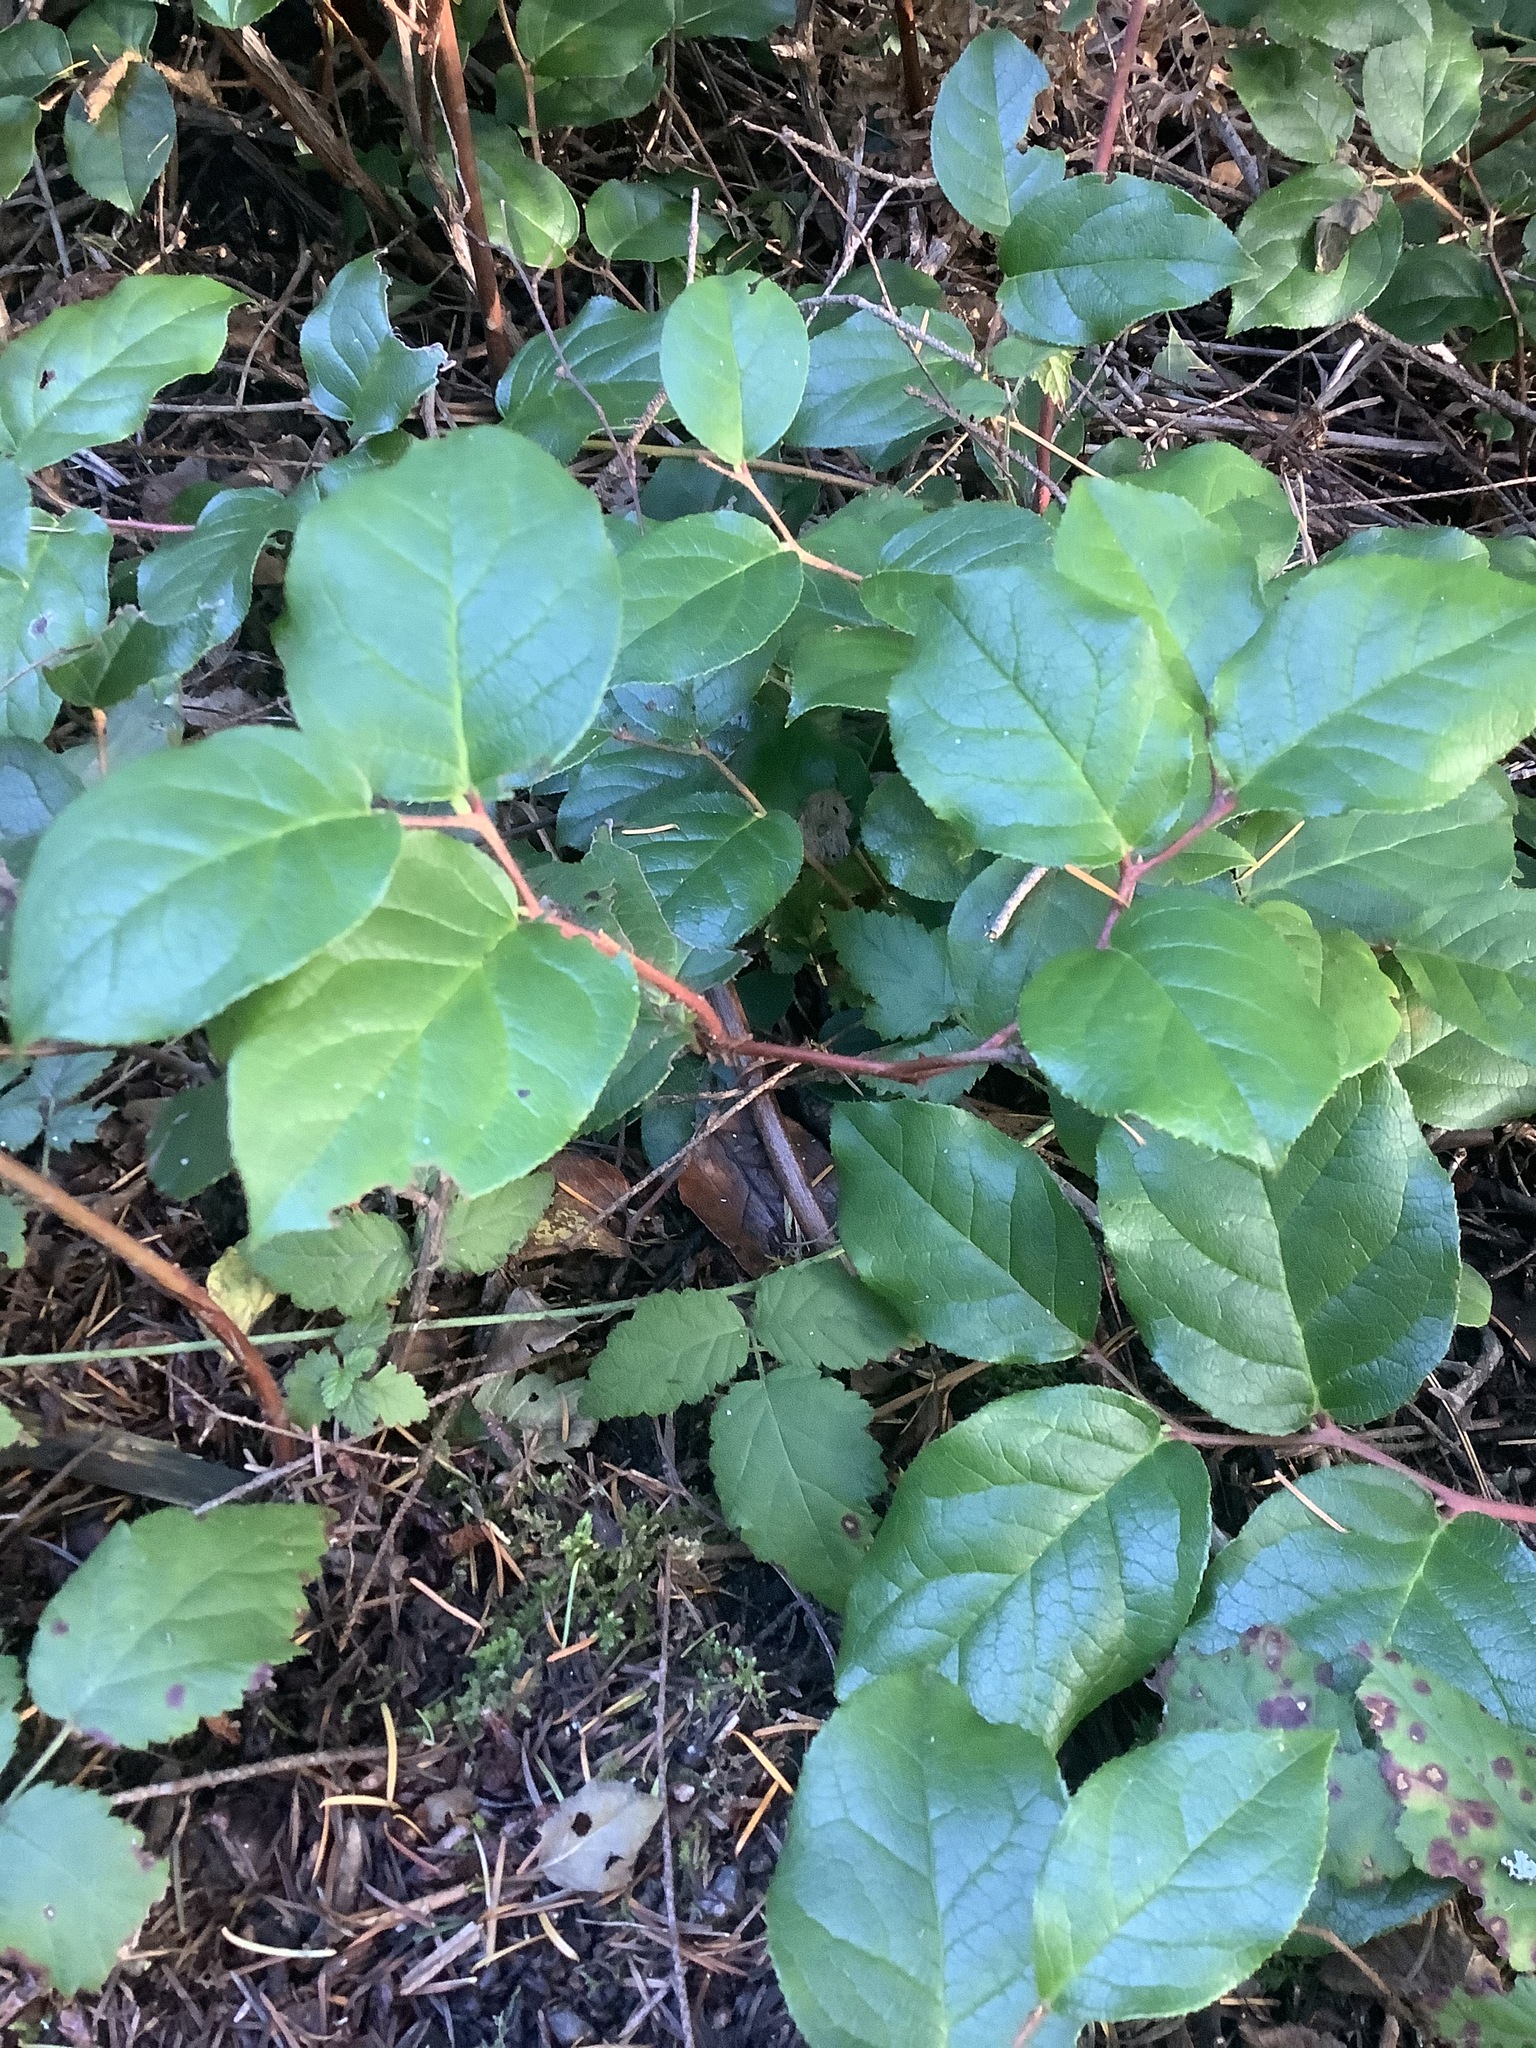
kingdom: Plantae
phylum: Tracheophyta
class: Magnoliopsida
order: Ericales
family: Ericaceae
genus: Gaultheria
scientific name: Gaultheria shallon
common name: Shallon
